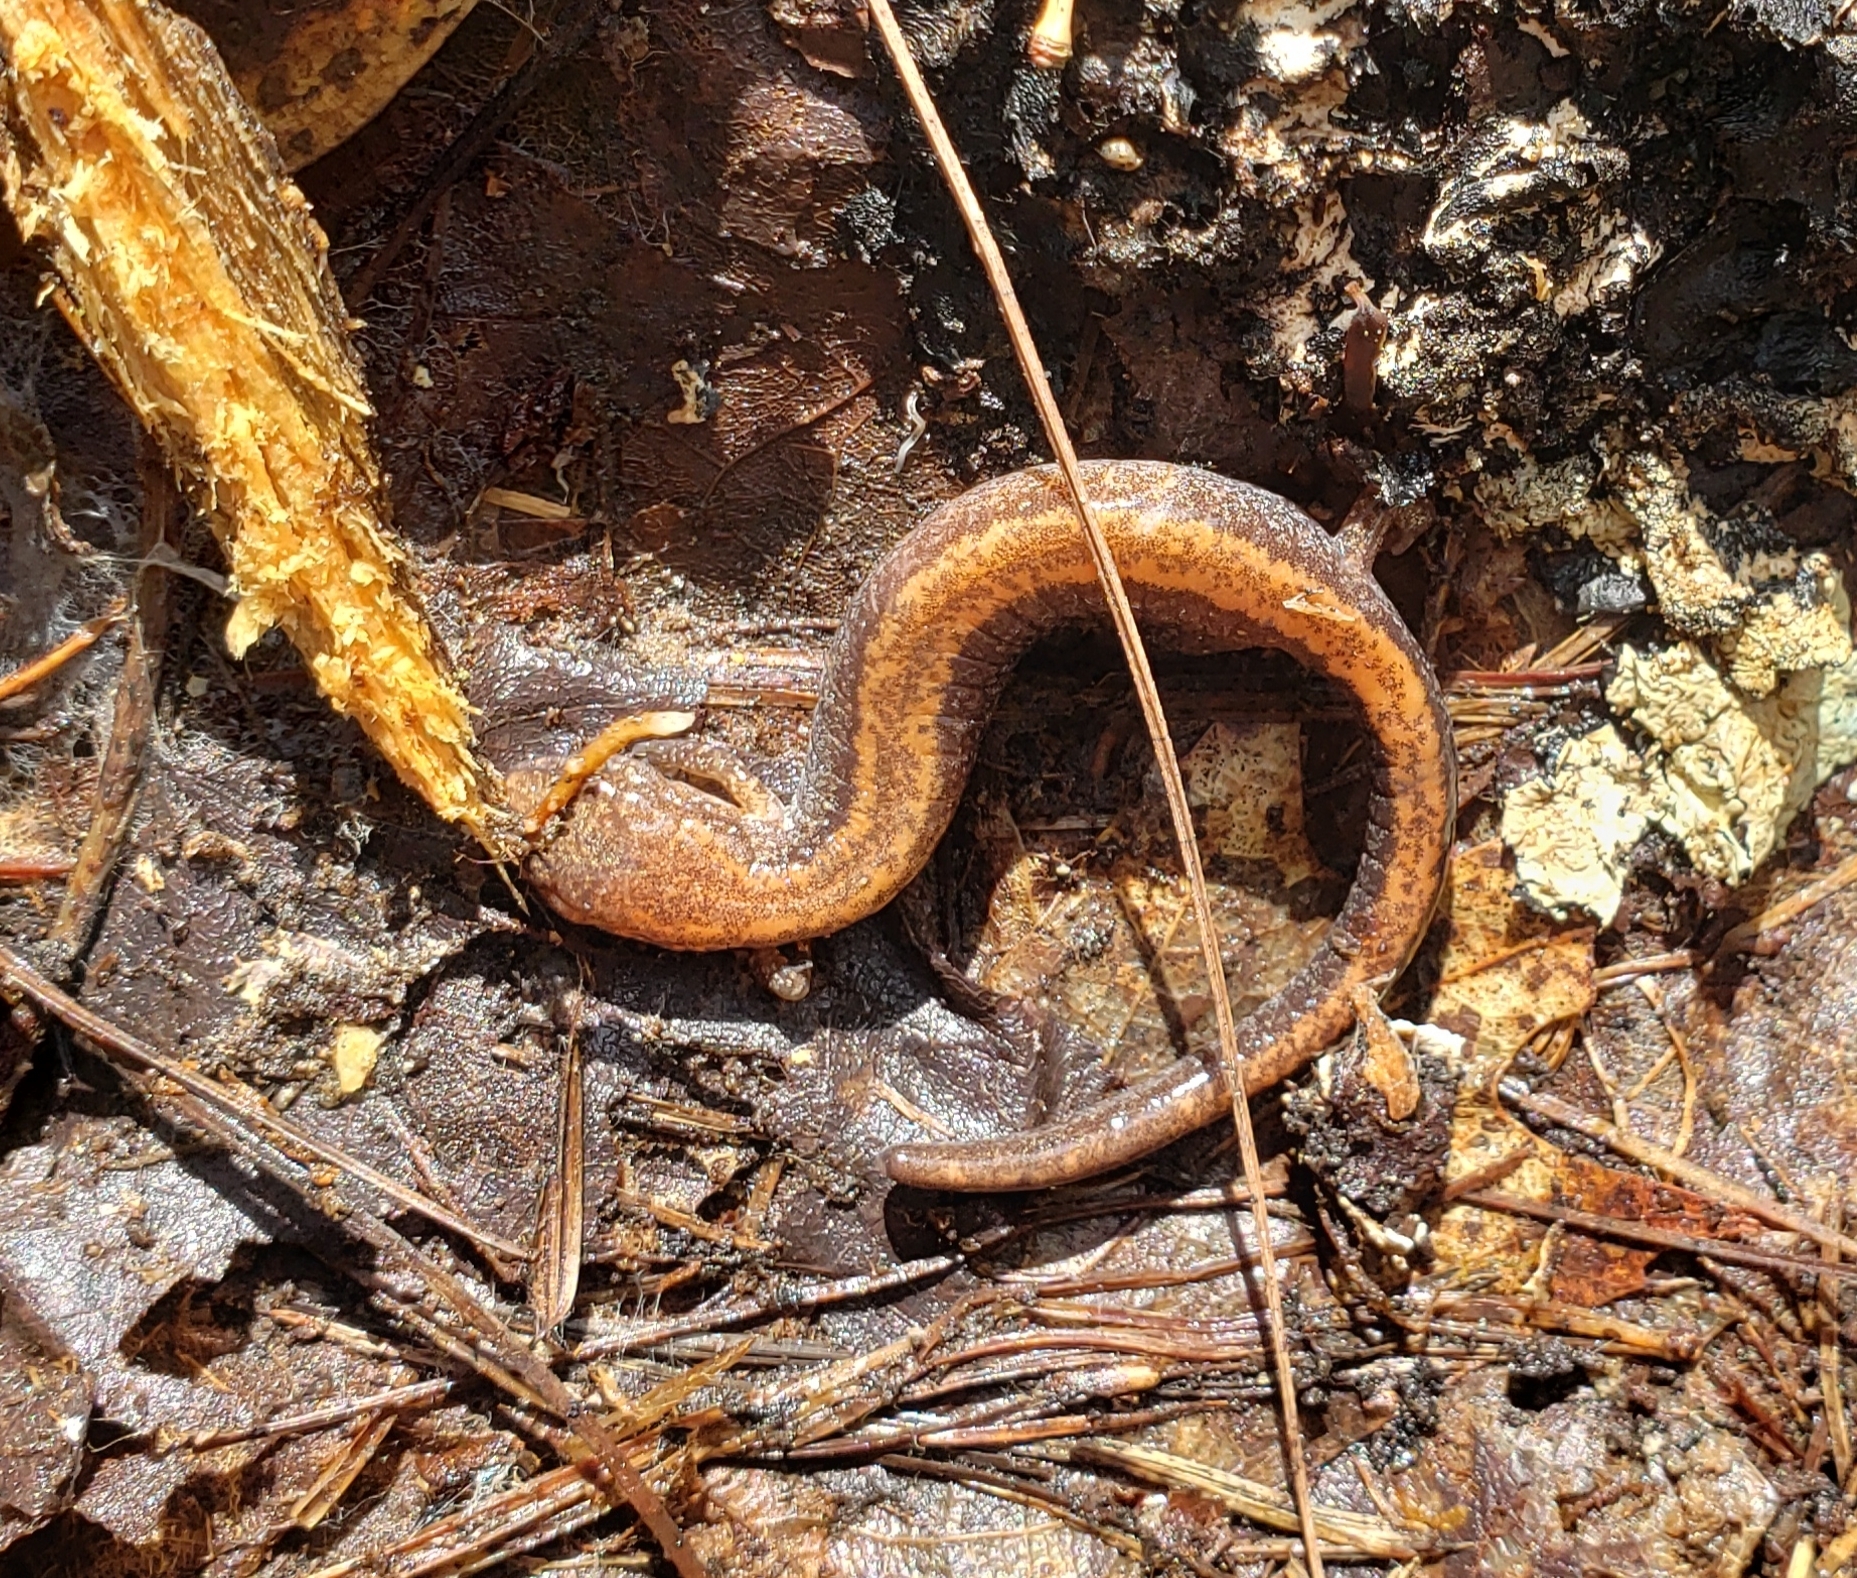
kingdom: Animalia
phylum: Chordata
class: Amphibia
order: Caudata
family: Plethodontidae
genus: Plethodon
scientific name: Plethodon cinereus
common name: Redback salamander
